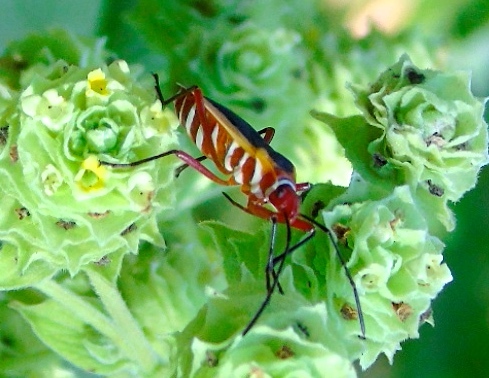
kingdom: Animalia
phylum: Arthropoda
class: Insecta
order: Hemiptera
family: Pyrrhocoridae
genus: Dysdercus
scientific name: Dysdercus obscuratus
